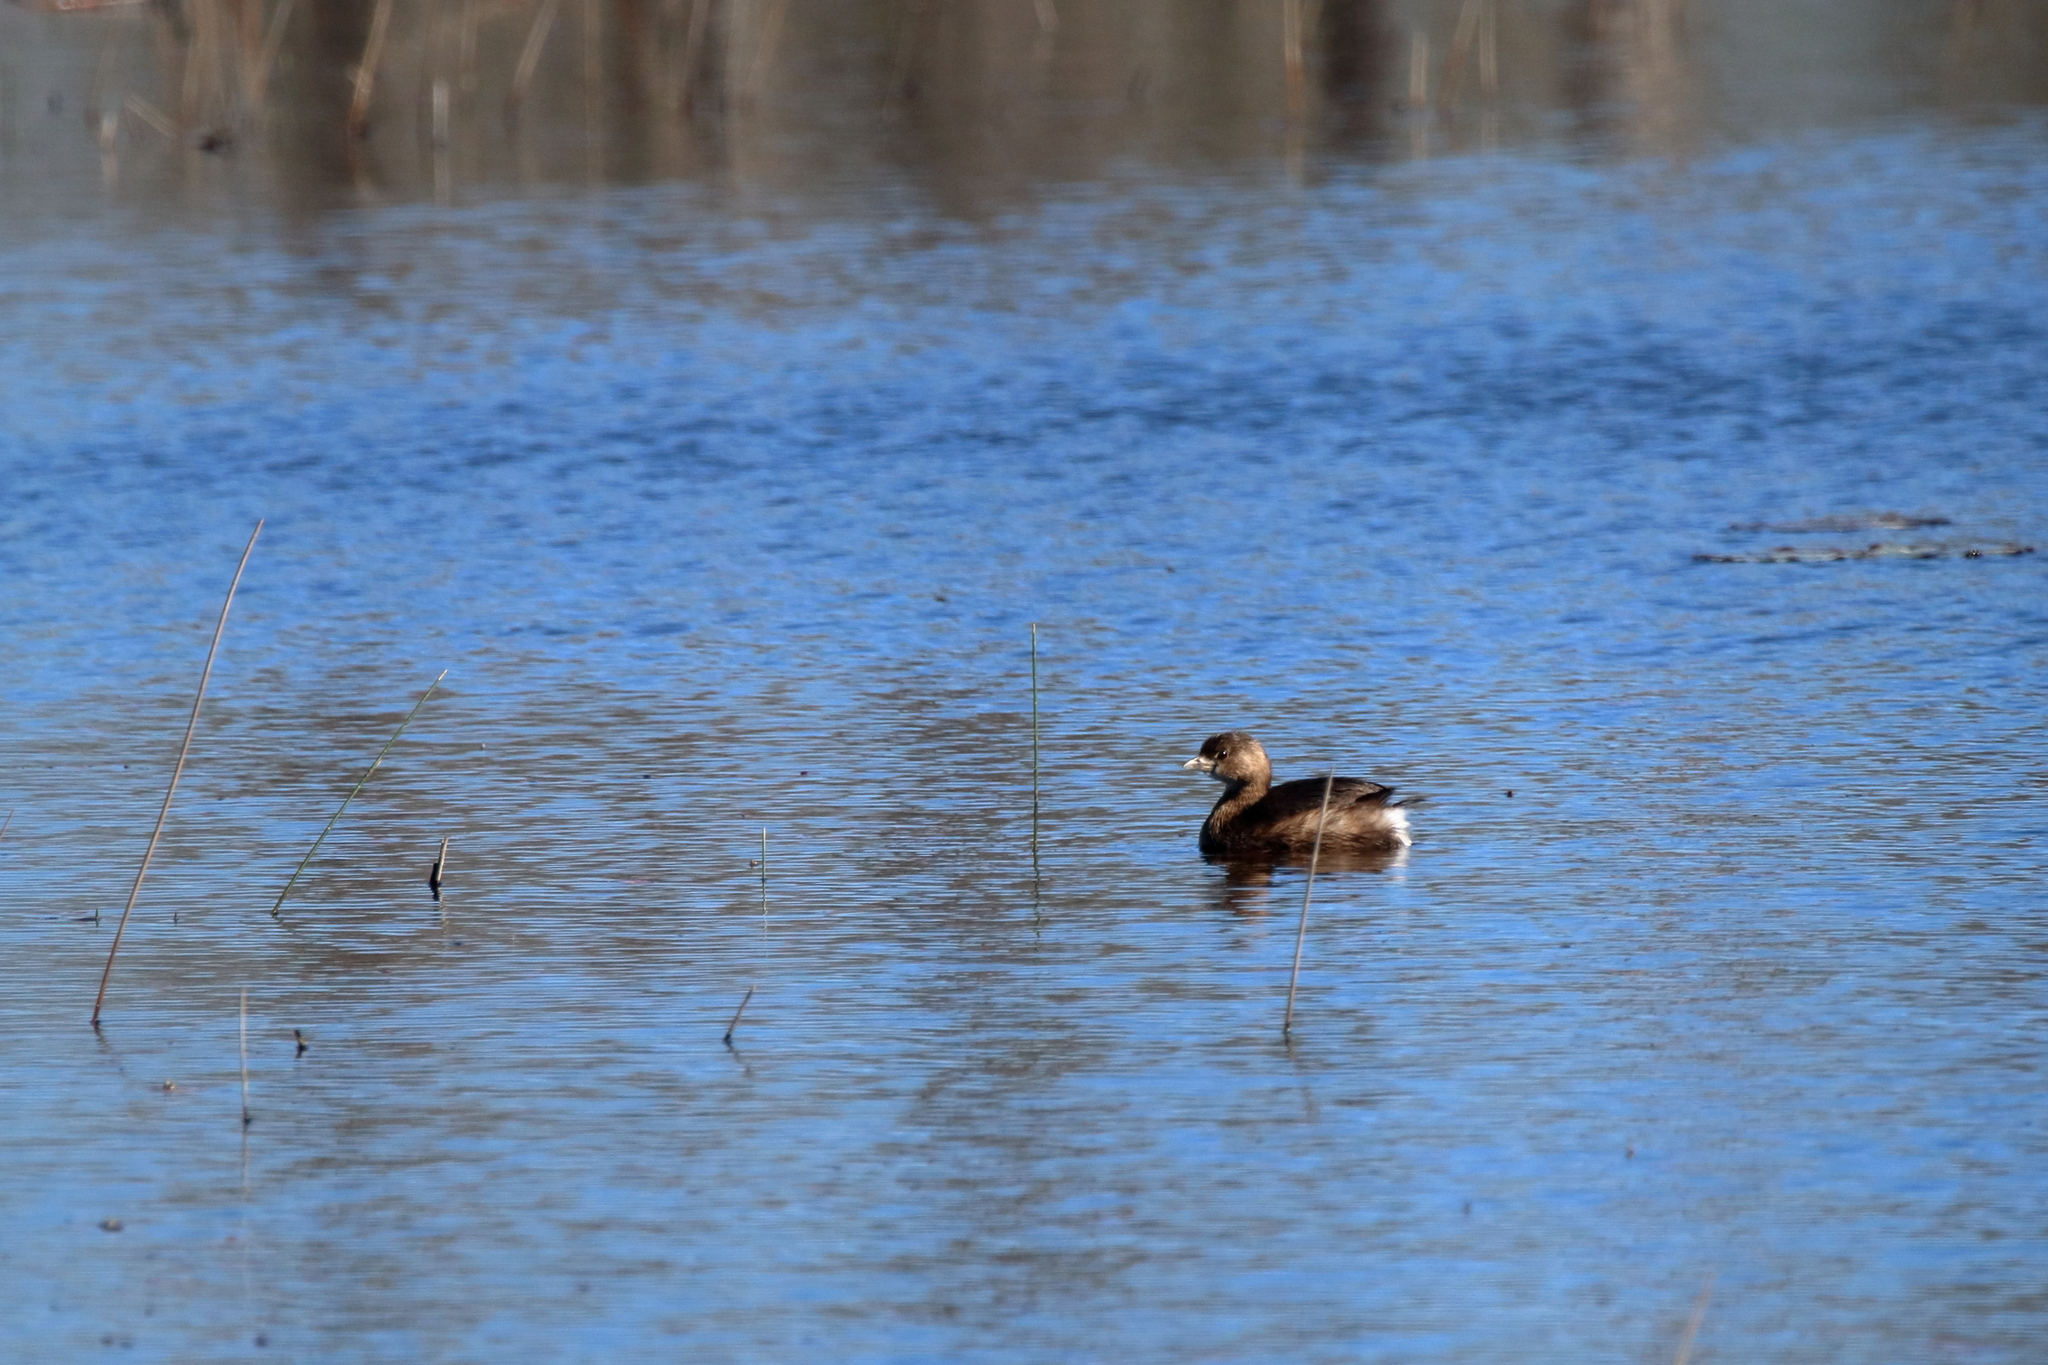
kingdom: Animalia
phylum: Chordata
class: Aves
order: Podicipediformes
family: Podicipedidae
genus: Podilymbus
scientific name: Podilymbus podiceps
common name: Pied-billed grebe
